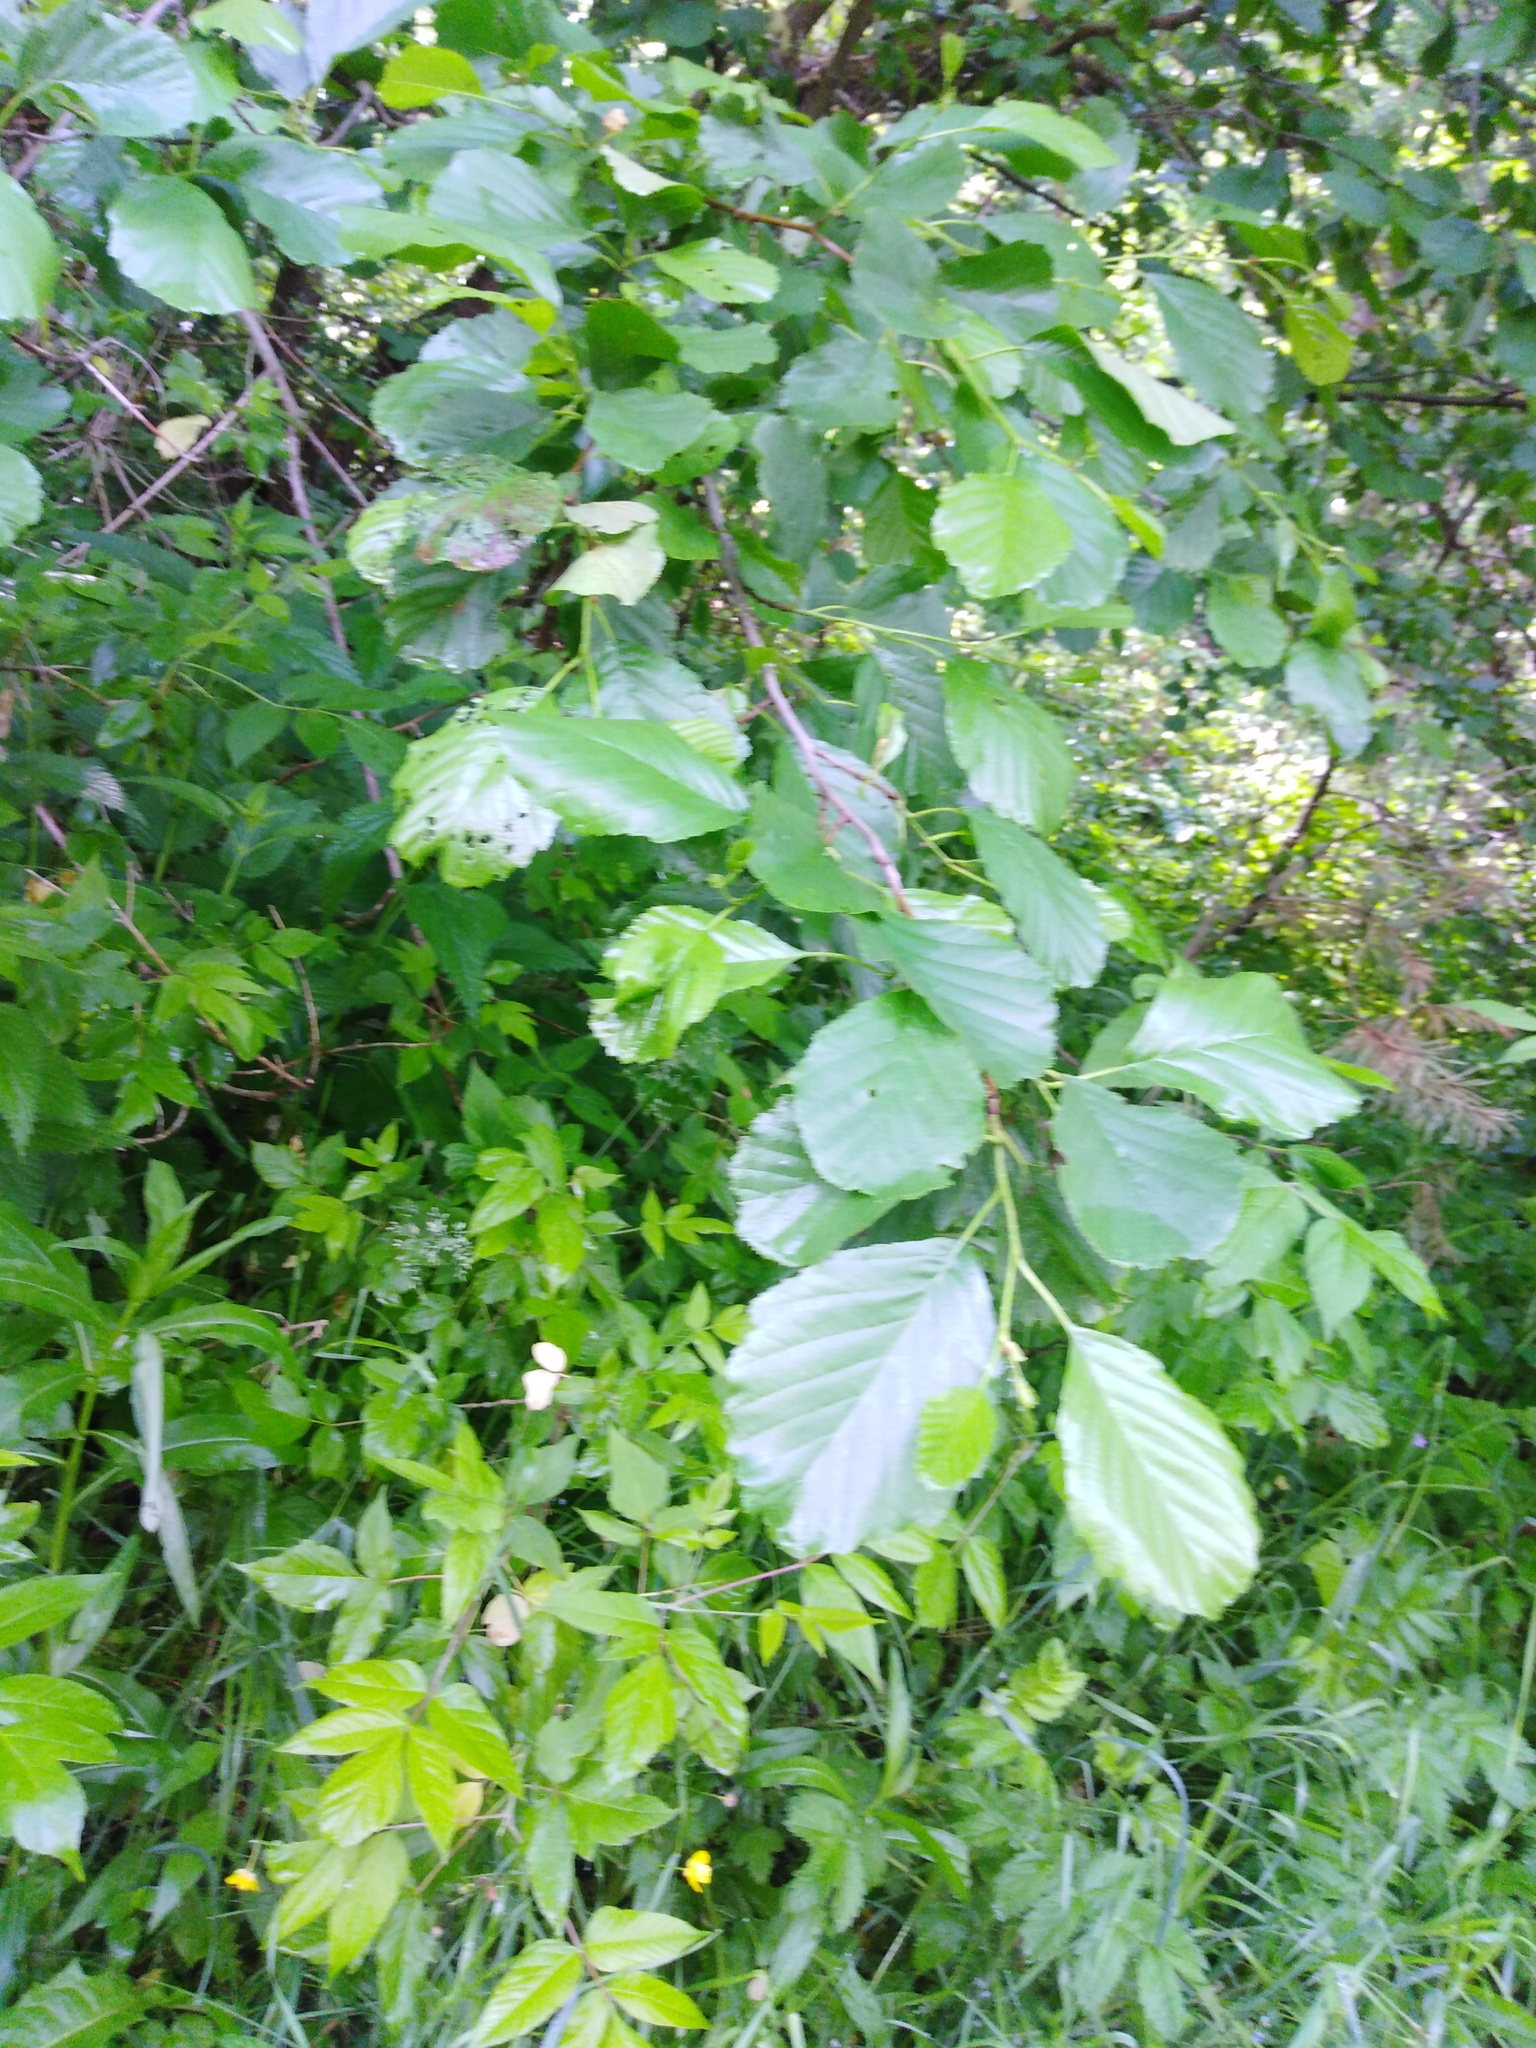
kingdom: Plantae
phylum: Tracheophyta
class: Magnoliopsida
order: Fagales
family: Betulaceae
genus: Alnus
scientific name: Alnus glutinosa
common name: Black alder
